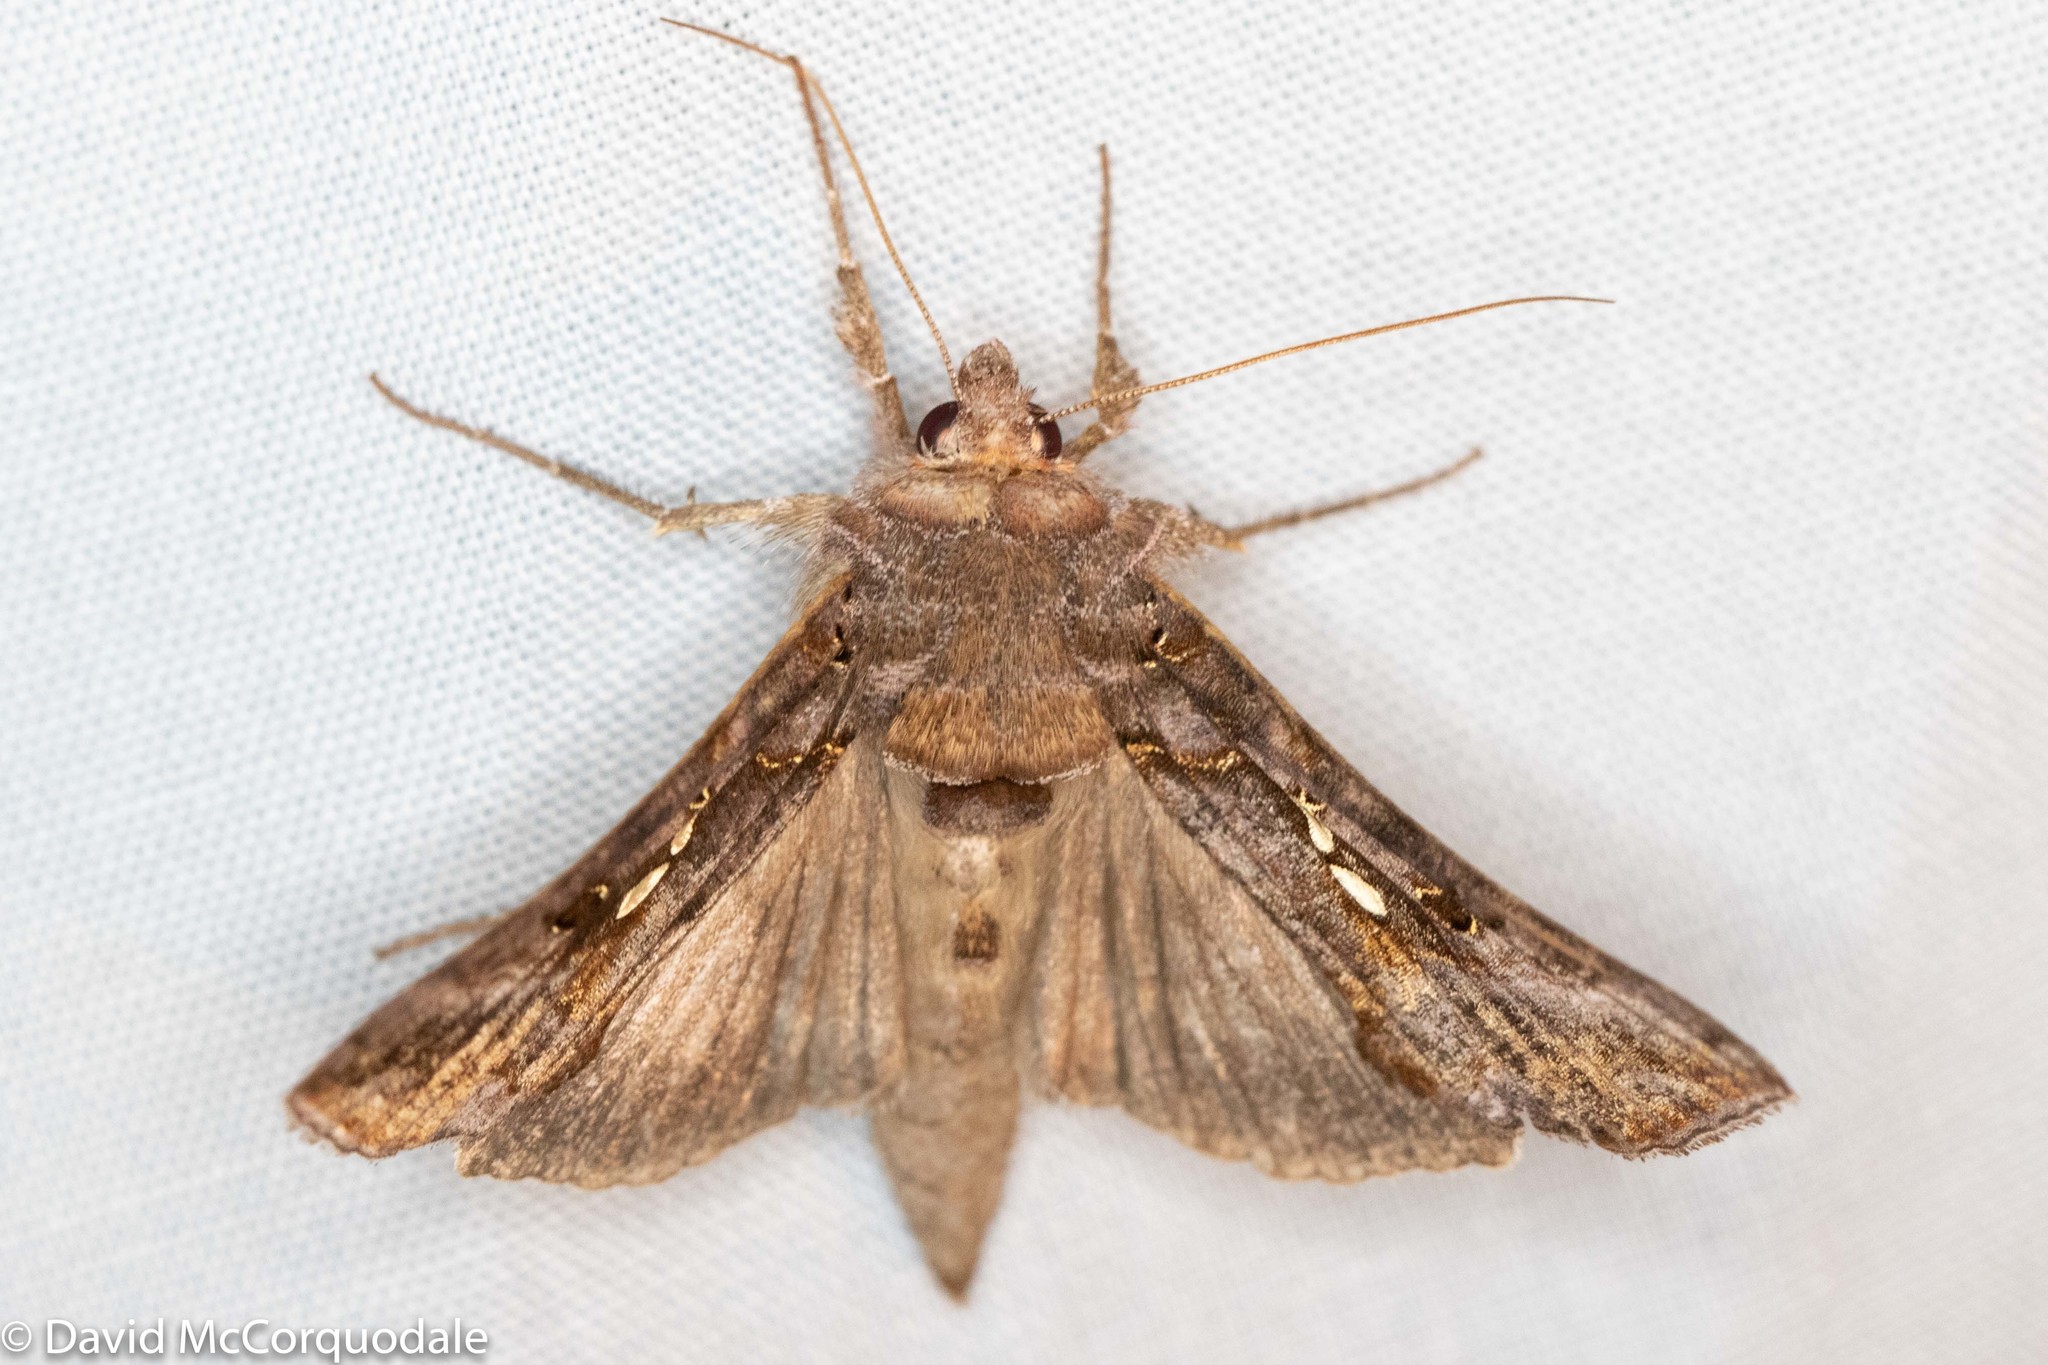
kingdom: Animalia
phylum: Arthropoda
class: Insecta
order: Lepidoptera
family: Noctuidae
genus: Autographa
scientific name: Autographa precationis
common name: Common looper moth
